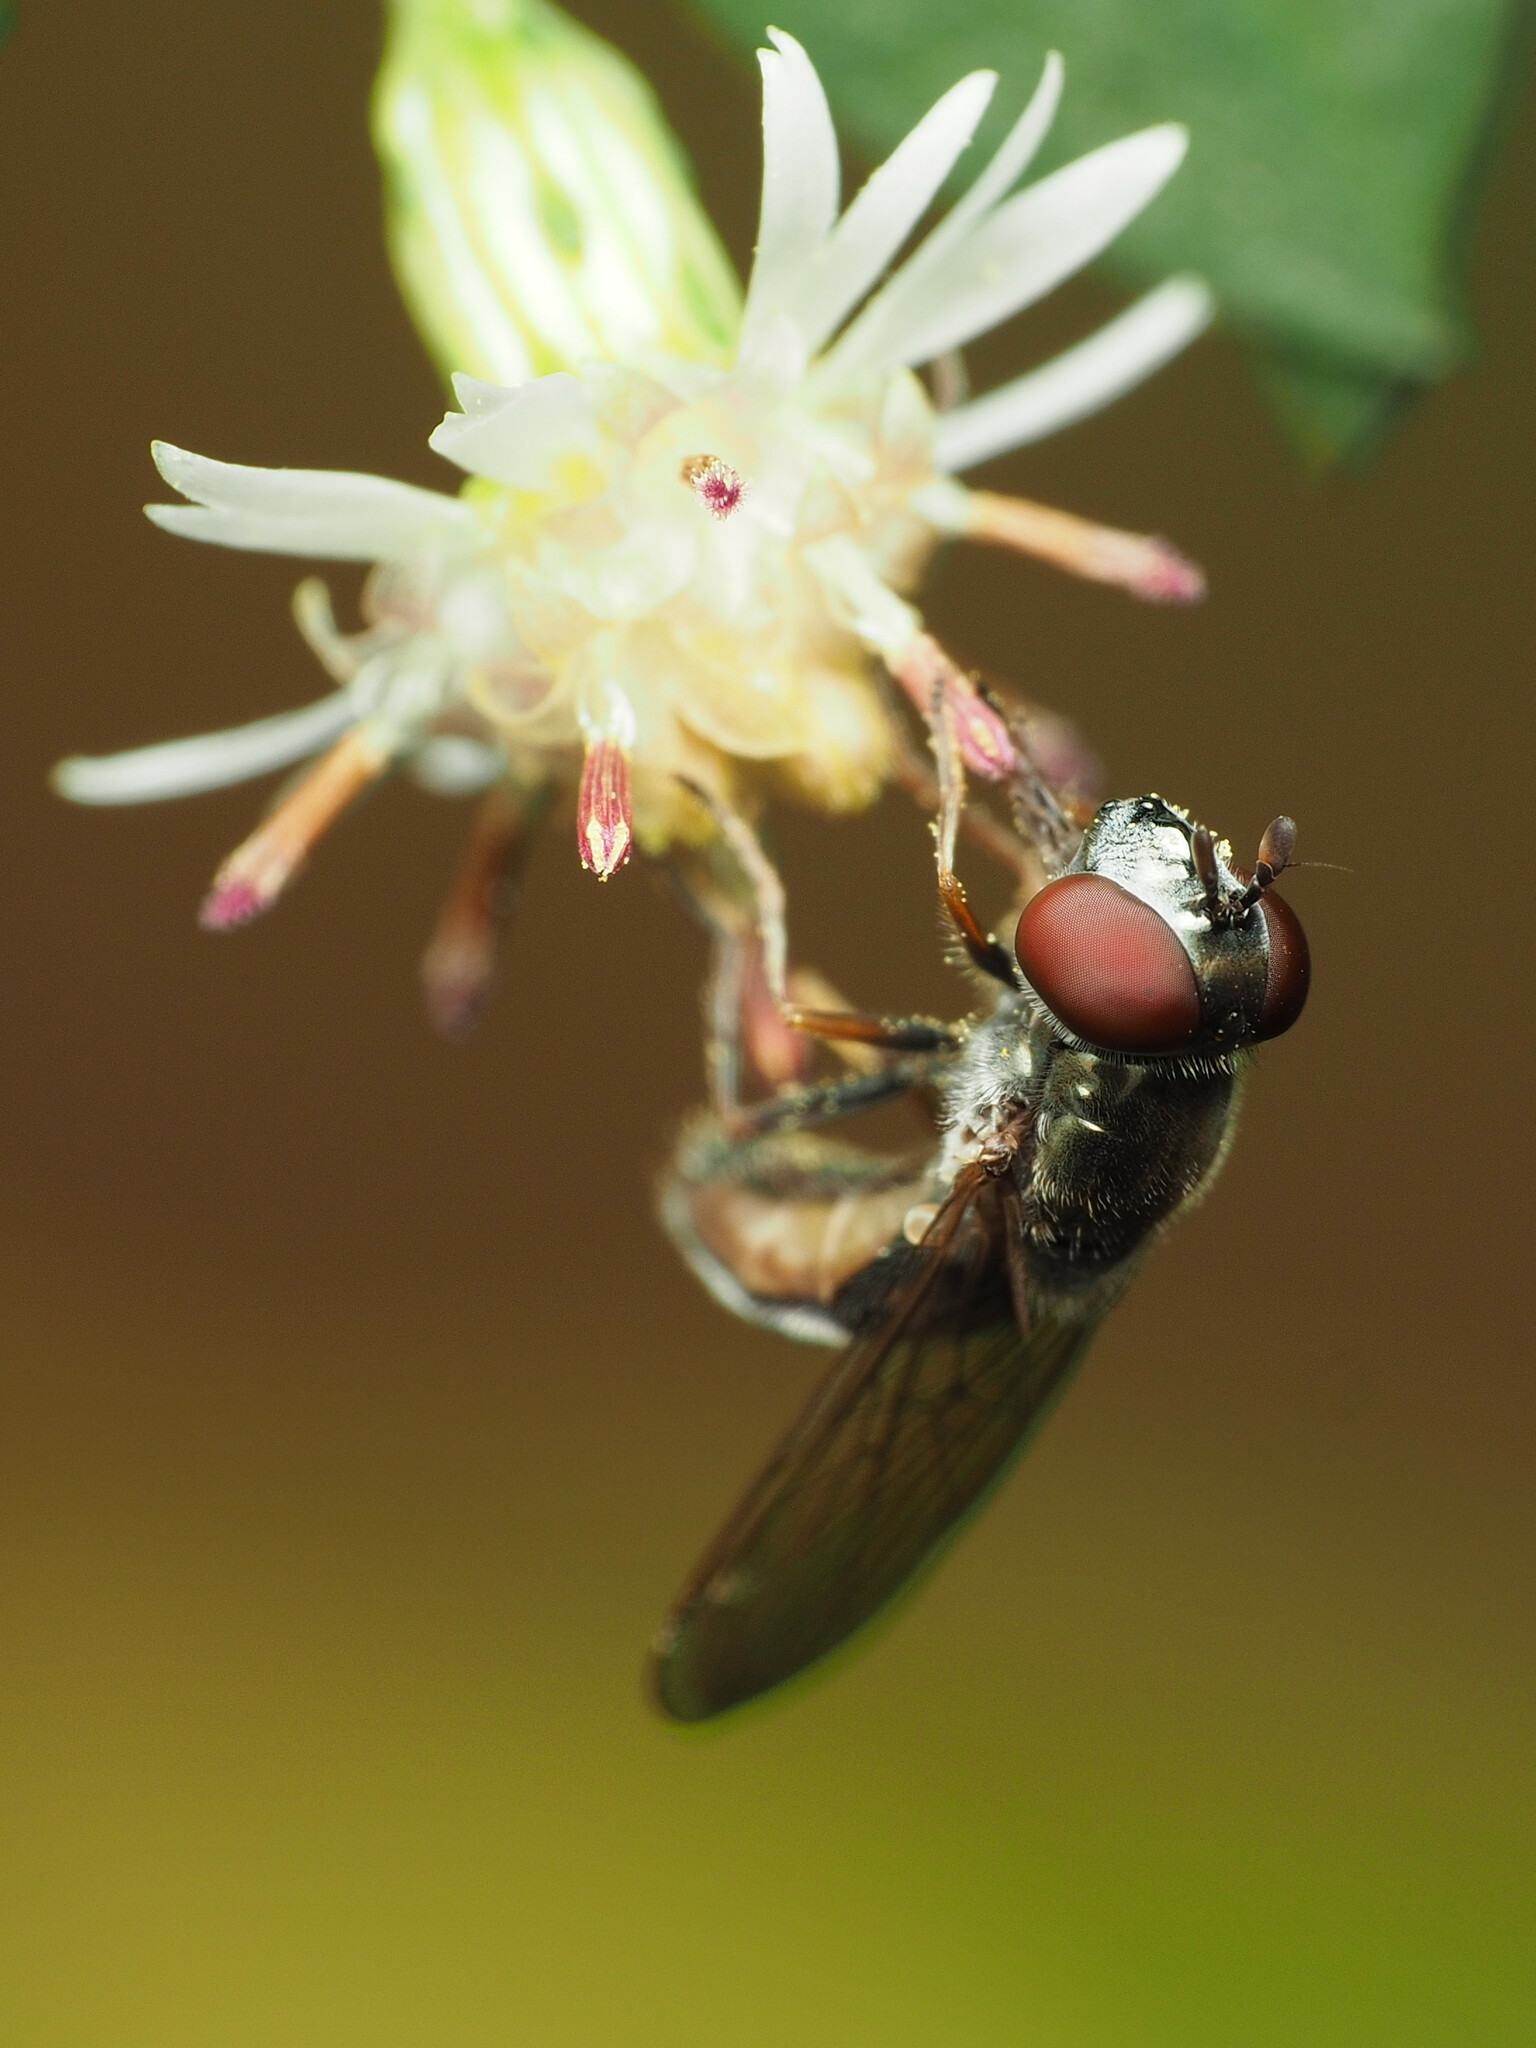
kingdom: Animalia
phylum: Arthropoda
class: Insecta
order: Diptera
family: Syrphidae
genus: Platycheirus
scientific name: Platycheirus obscurus
